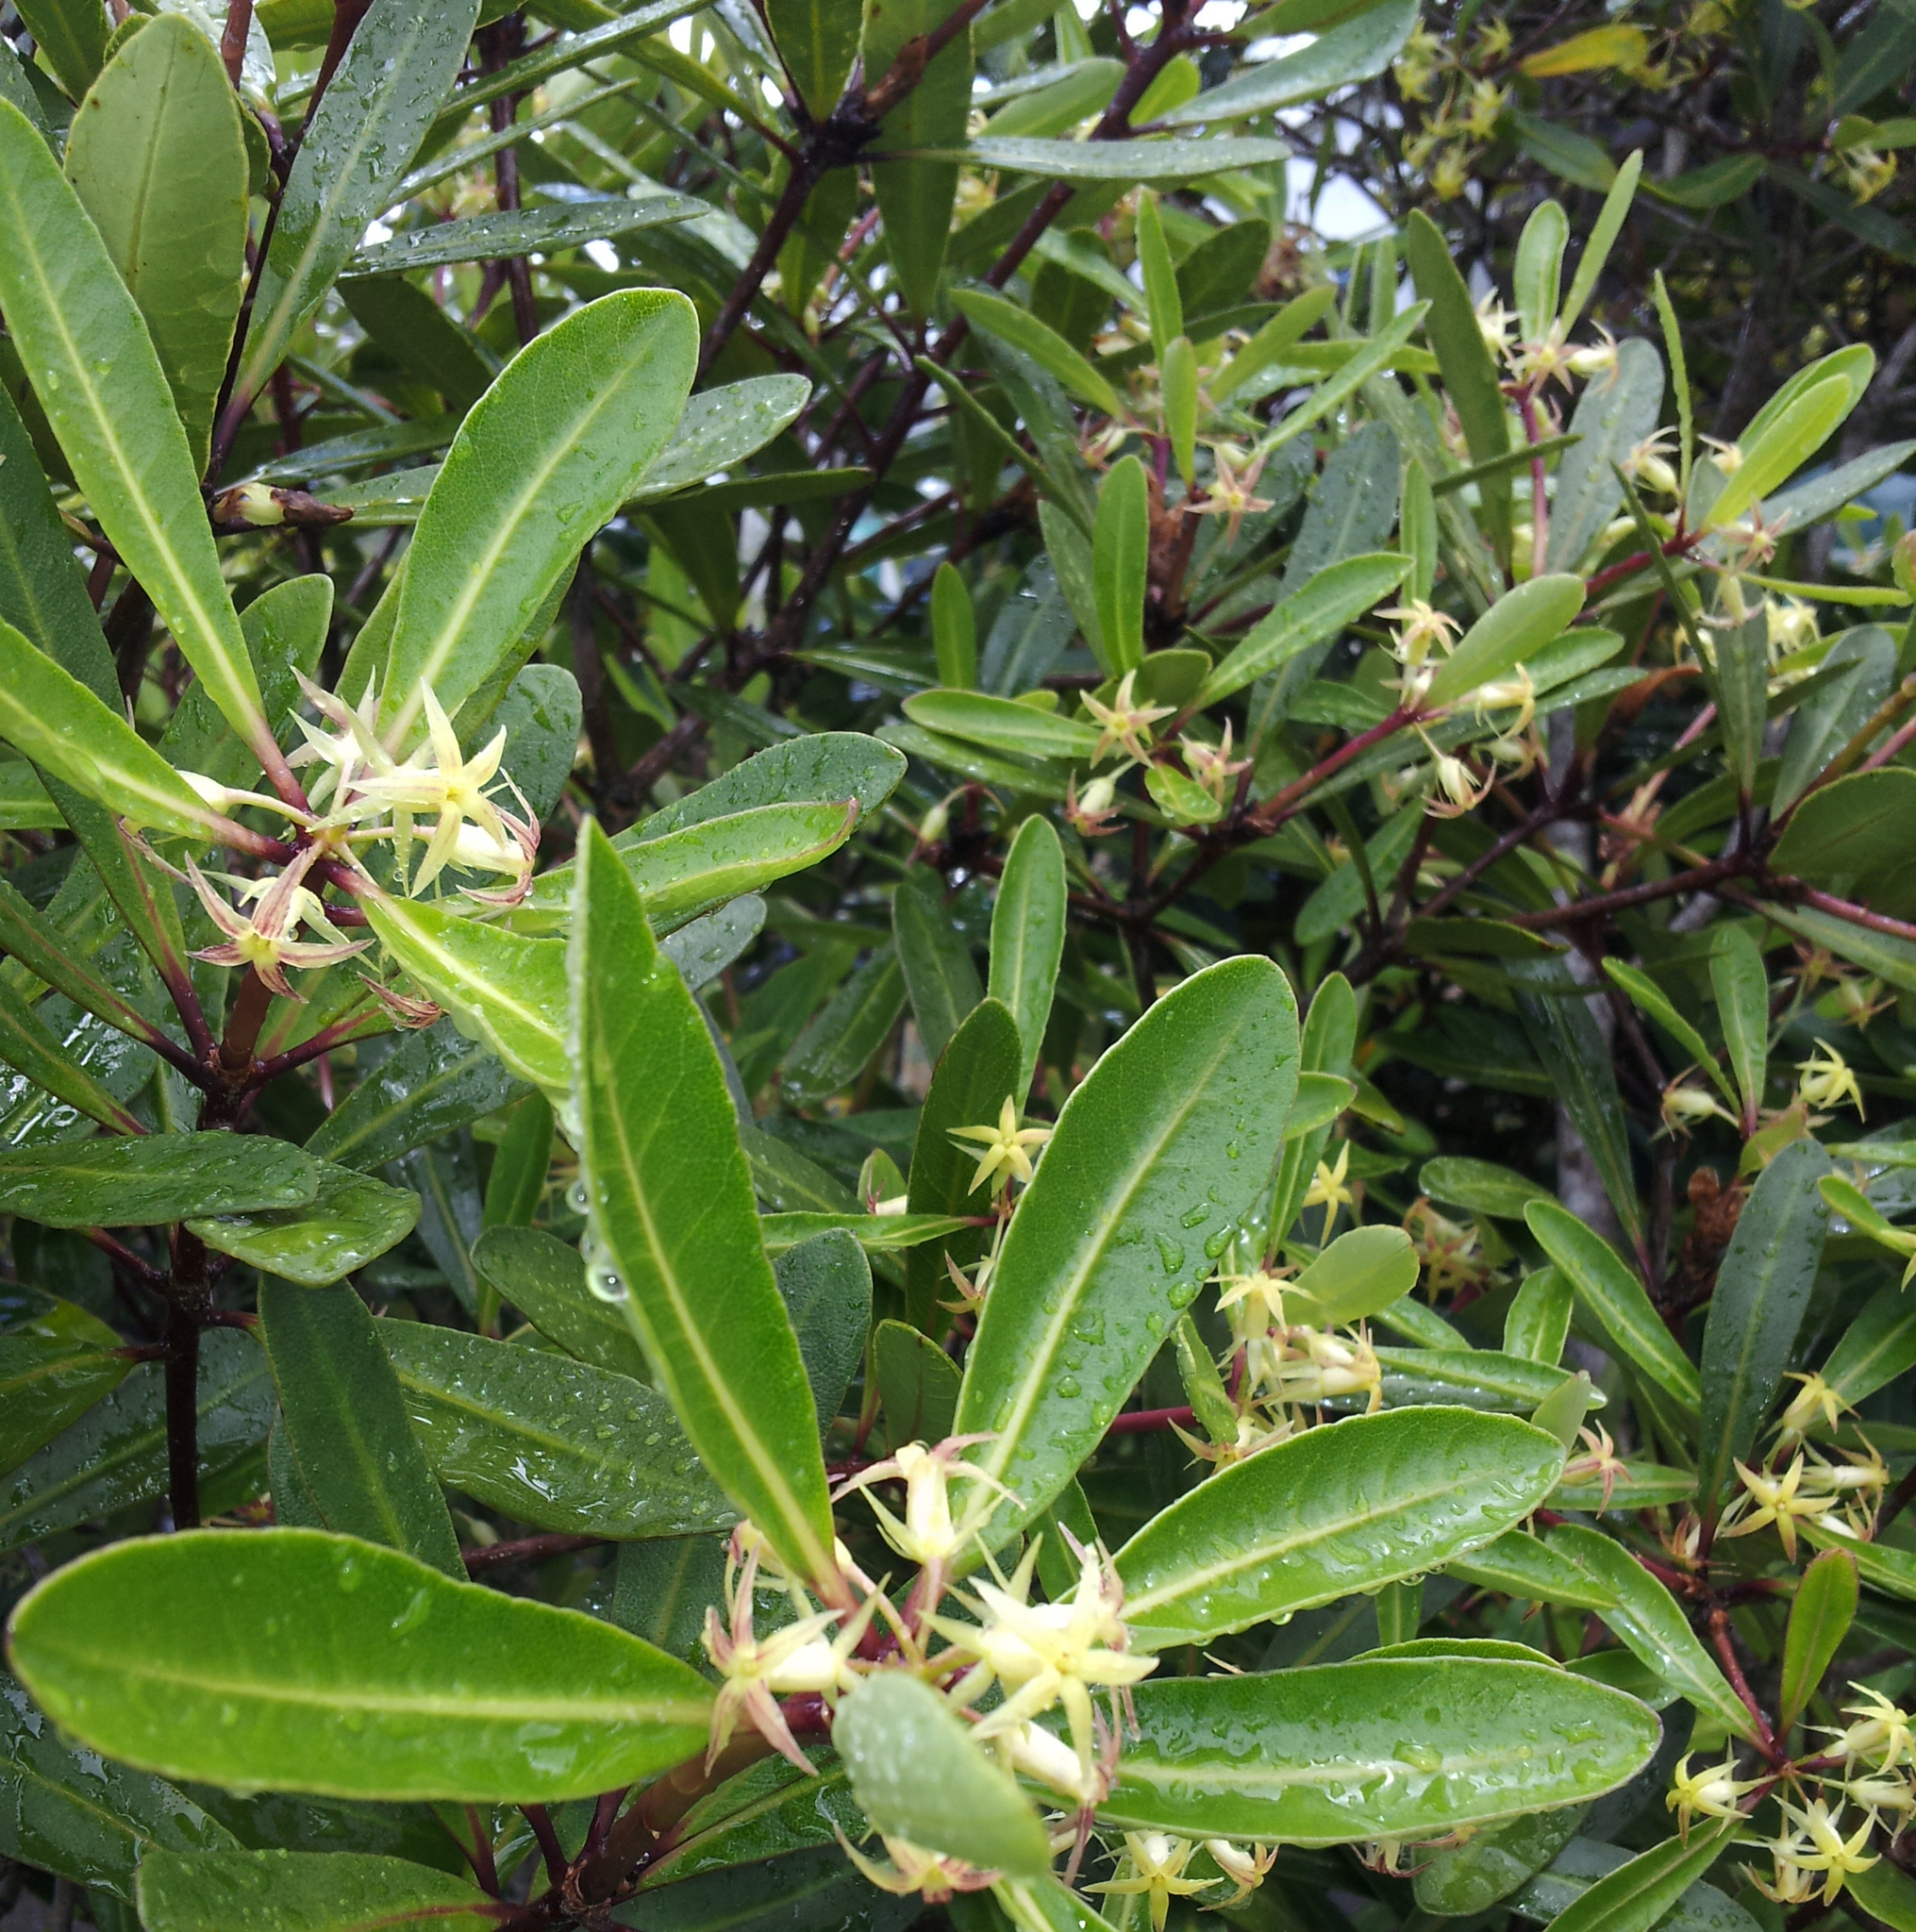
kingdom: Plantae
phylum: Tracheophyta
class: Magnoliopsida
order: Apiales
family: Pittosporaceae
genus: Pittosporum
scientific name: Pittosporum kirkii
